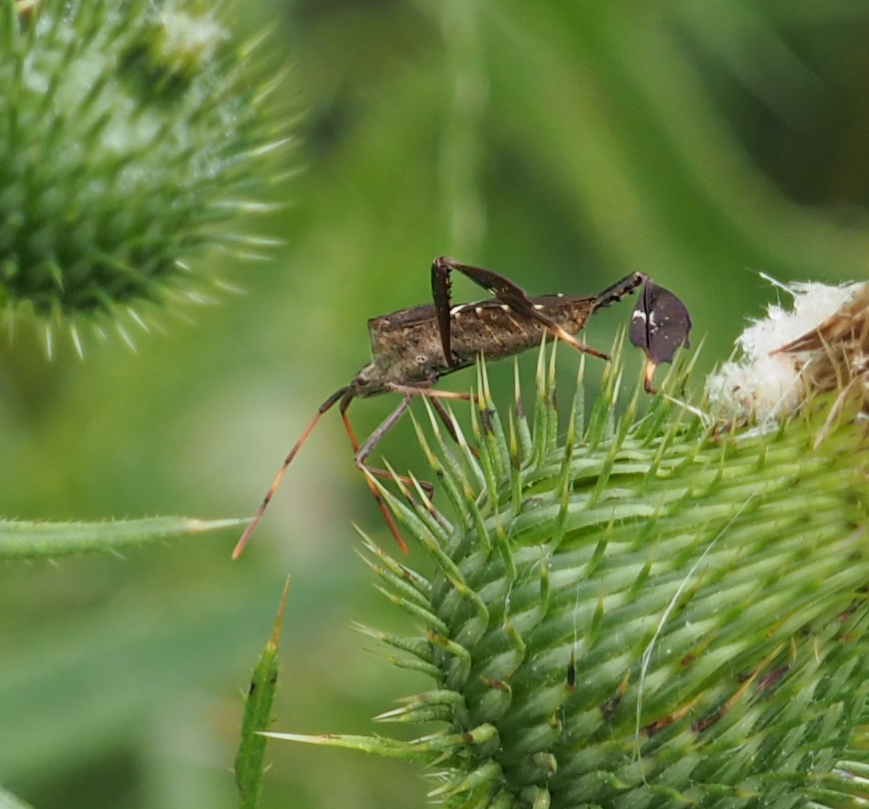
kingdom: Animalia
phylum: Arthropoda
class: Insecta
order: Hemiptera
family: Coreidae
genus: Leptoglossus
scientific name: Leptoglossus phyllopus
